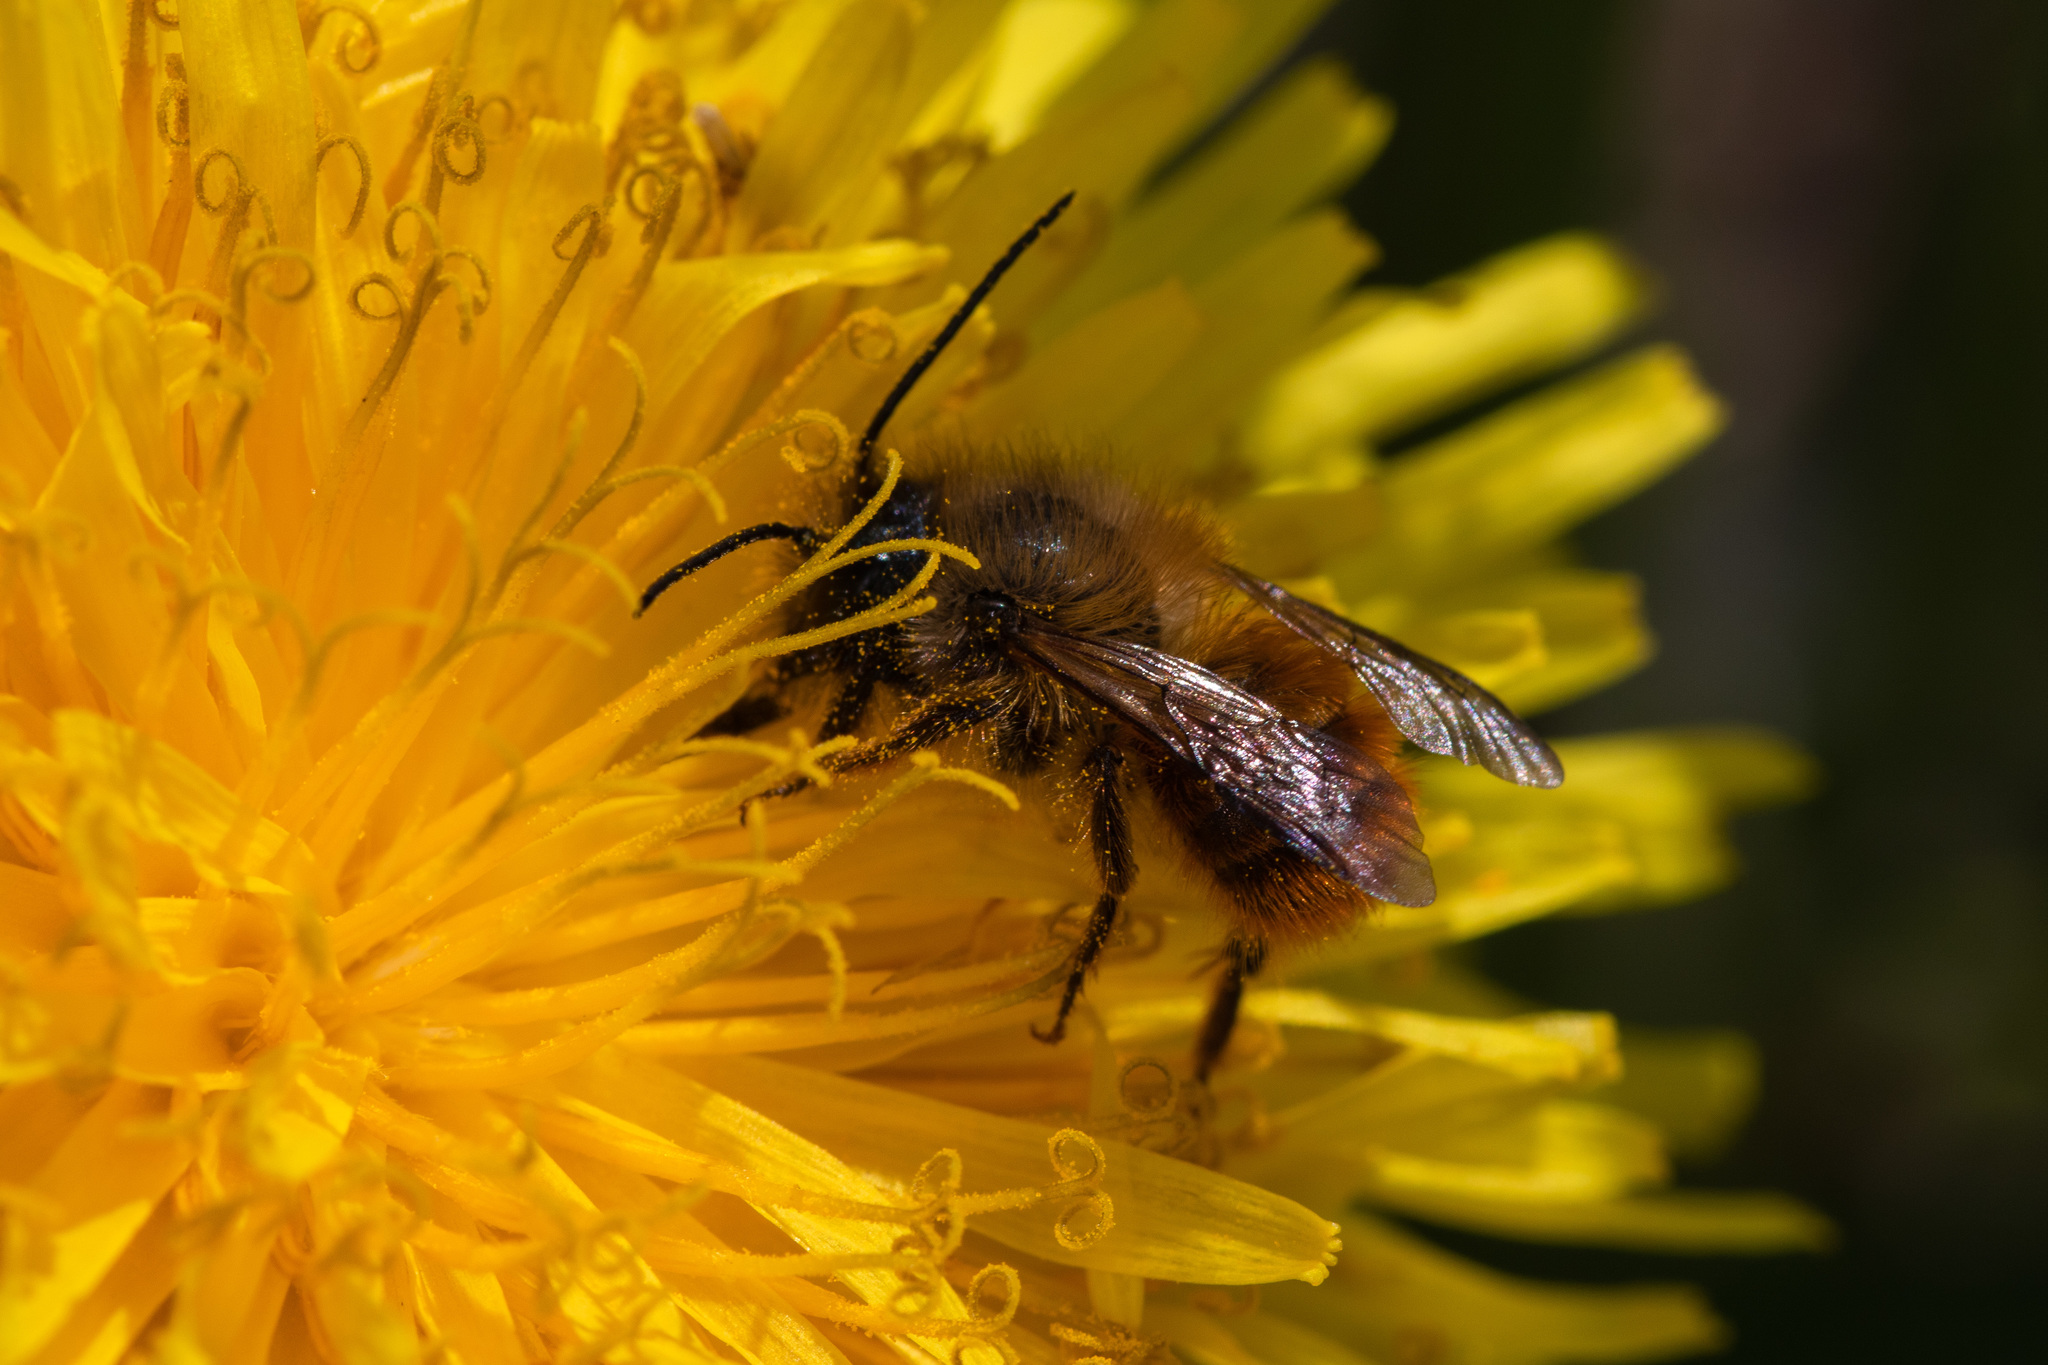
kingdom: Animalia
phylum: Arthropoda
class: Insecta
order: Hymenoptera
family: Megachilidae
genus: Osmia
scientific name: Osmia bicornis
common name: Red mason bee
